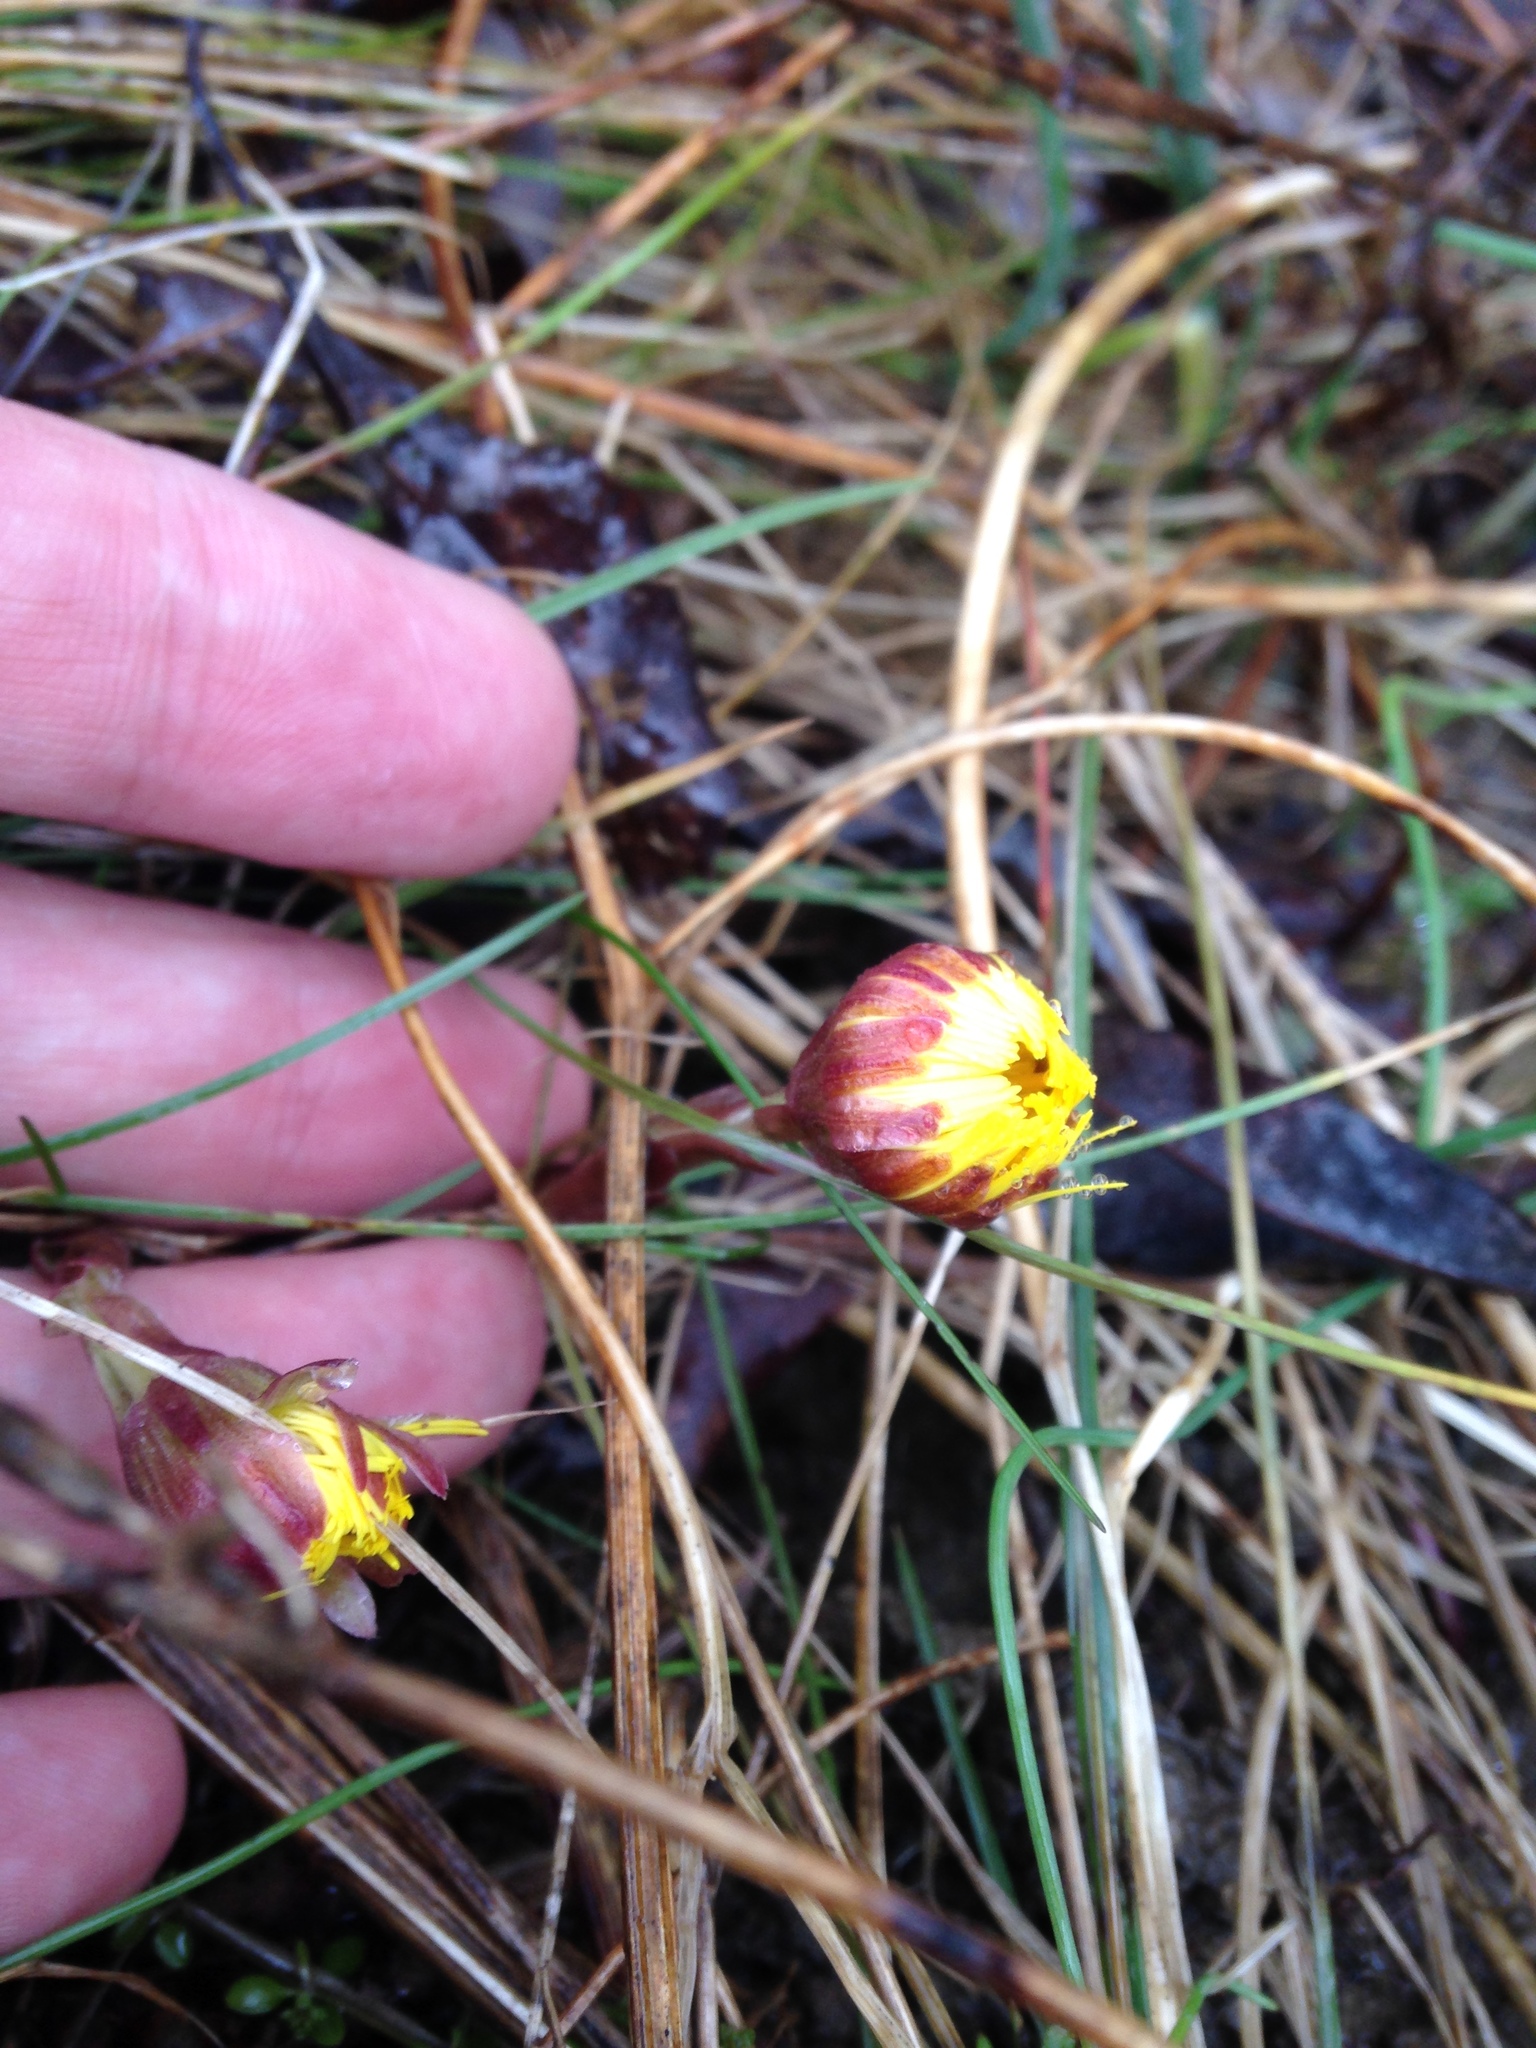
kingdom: Plantae
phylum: Tracheophyta
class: Magnoliopsida
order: Asterales
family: Asteraceae
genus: Tussilago
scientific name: Tussilago farfara
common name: Coltsfoot
